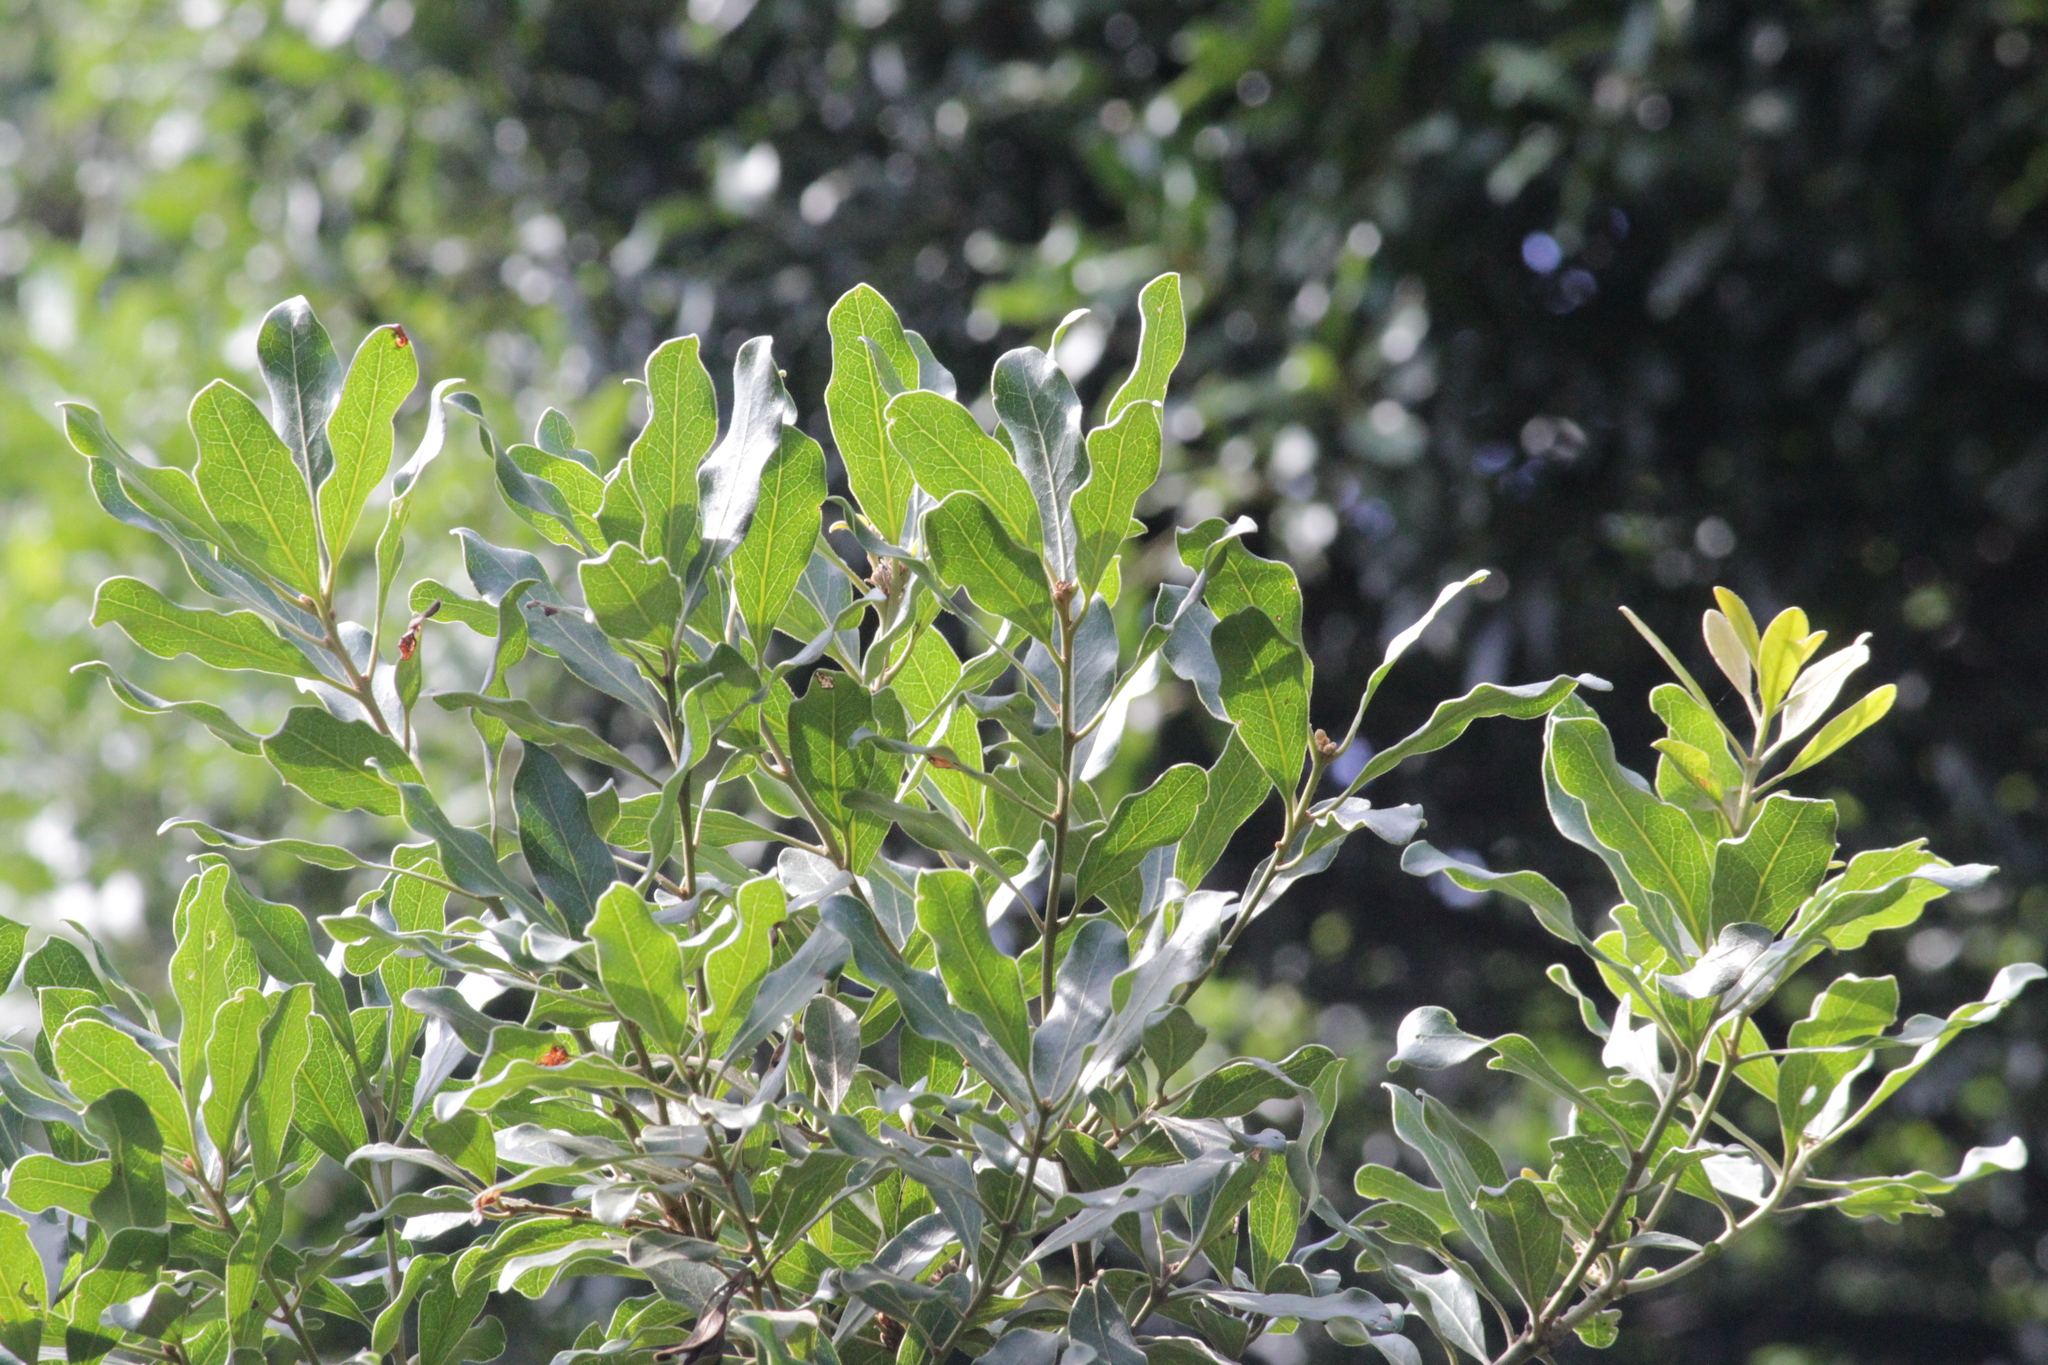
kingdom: Plantae
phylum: Tracheophyta
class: Magnoliopsida
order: Ericales
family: Ebenaceae
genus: Euclea
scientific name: Euclea natalensis
